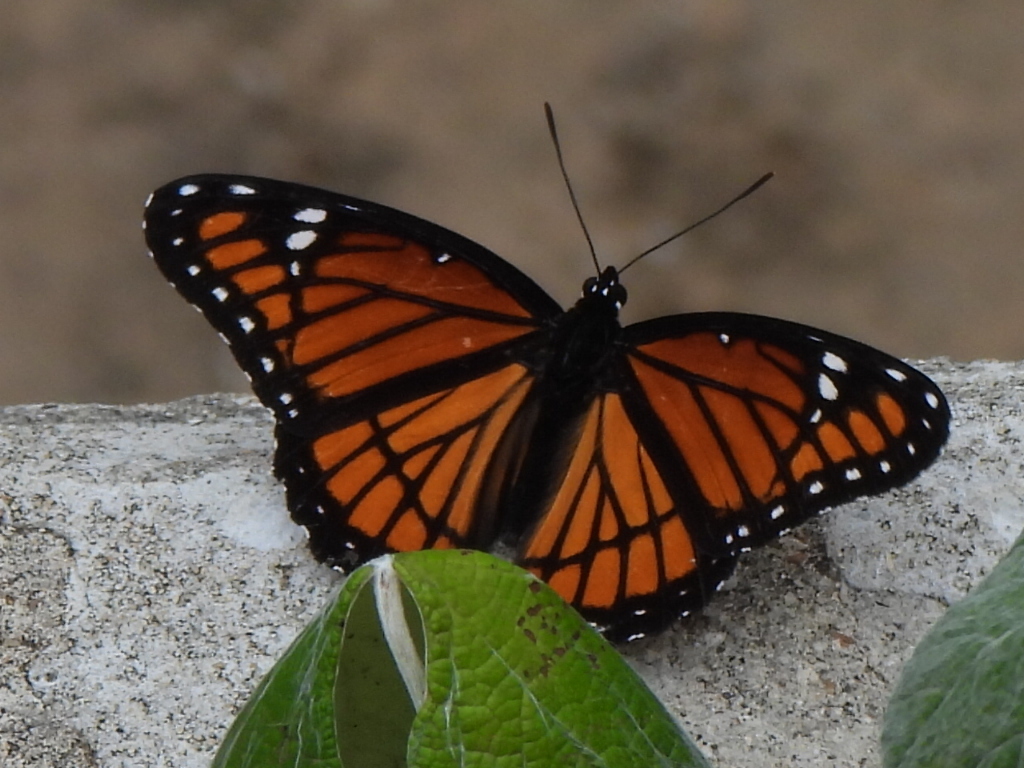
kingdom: Animalia
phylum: Arthropoda
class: Insecta
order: Lepidoptera
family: Nymphalidae
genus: Limenitis
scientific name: Limenitis archippus
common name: Viceroy
